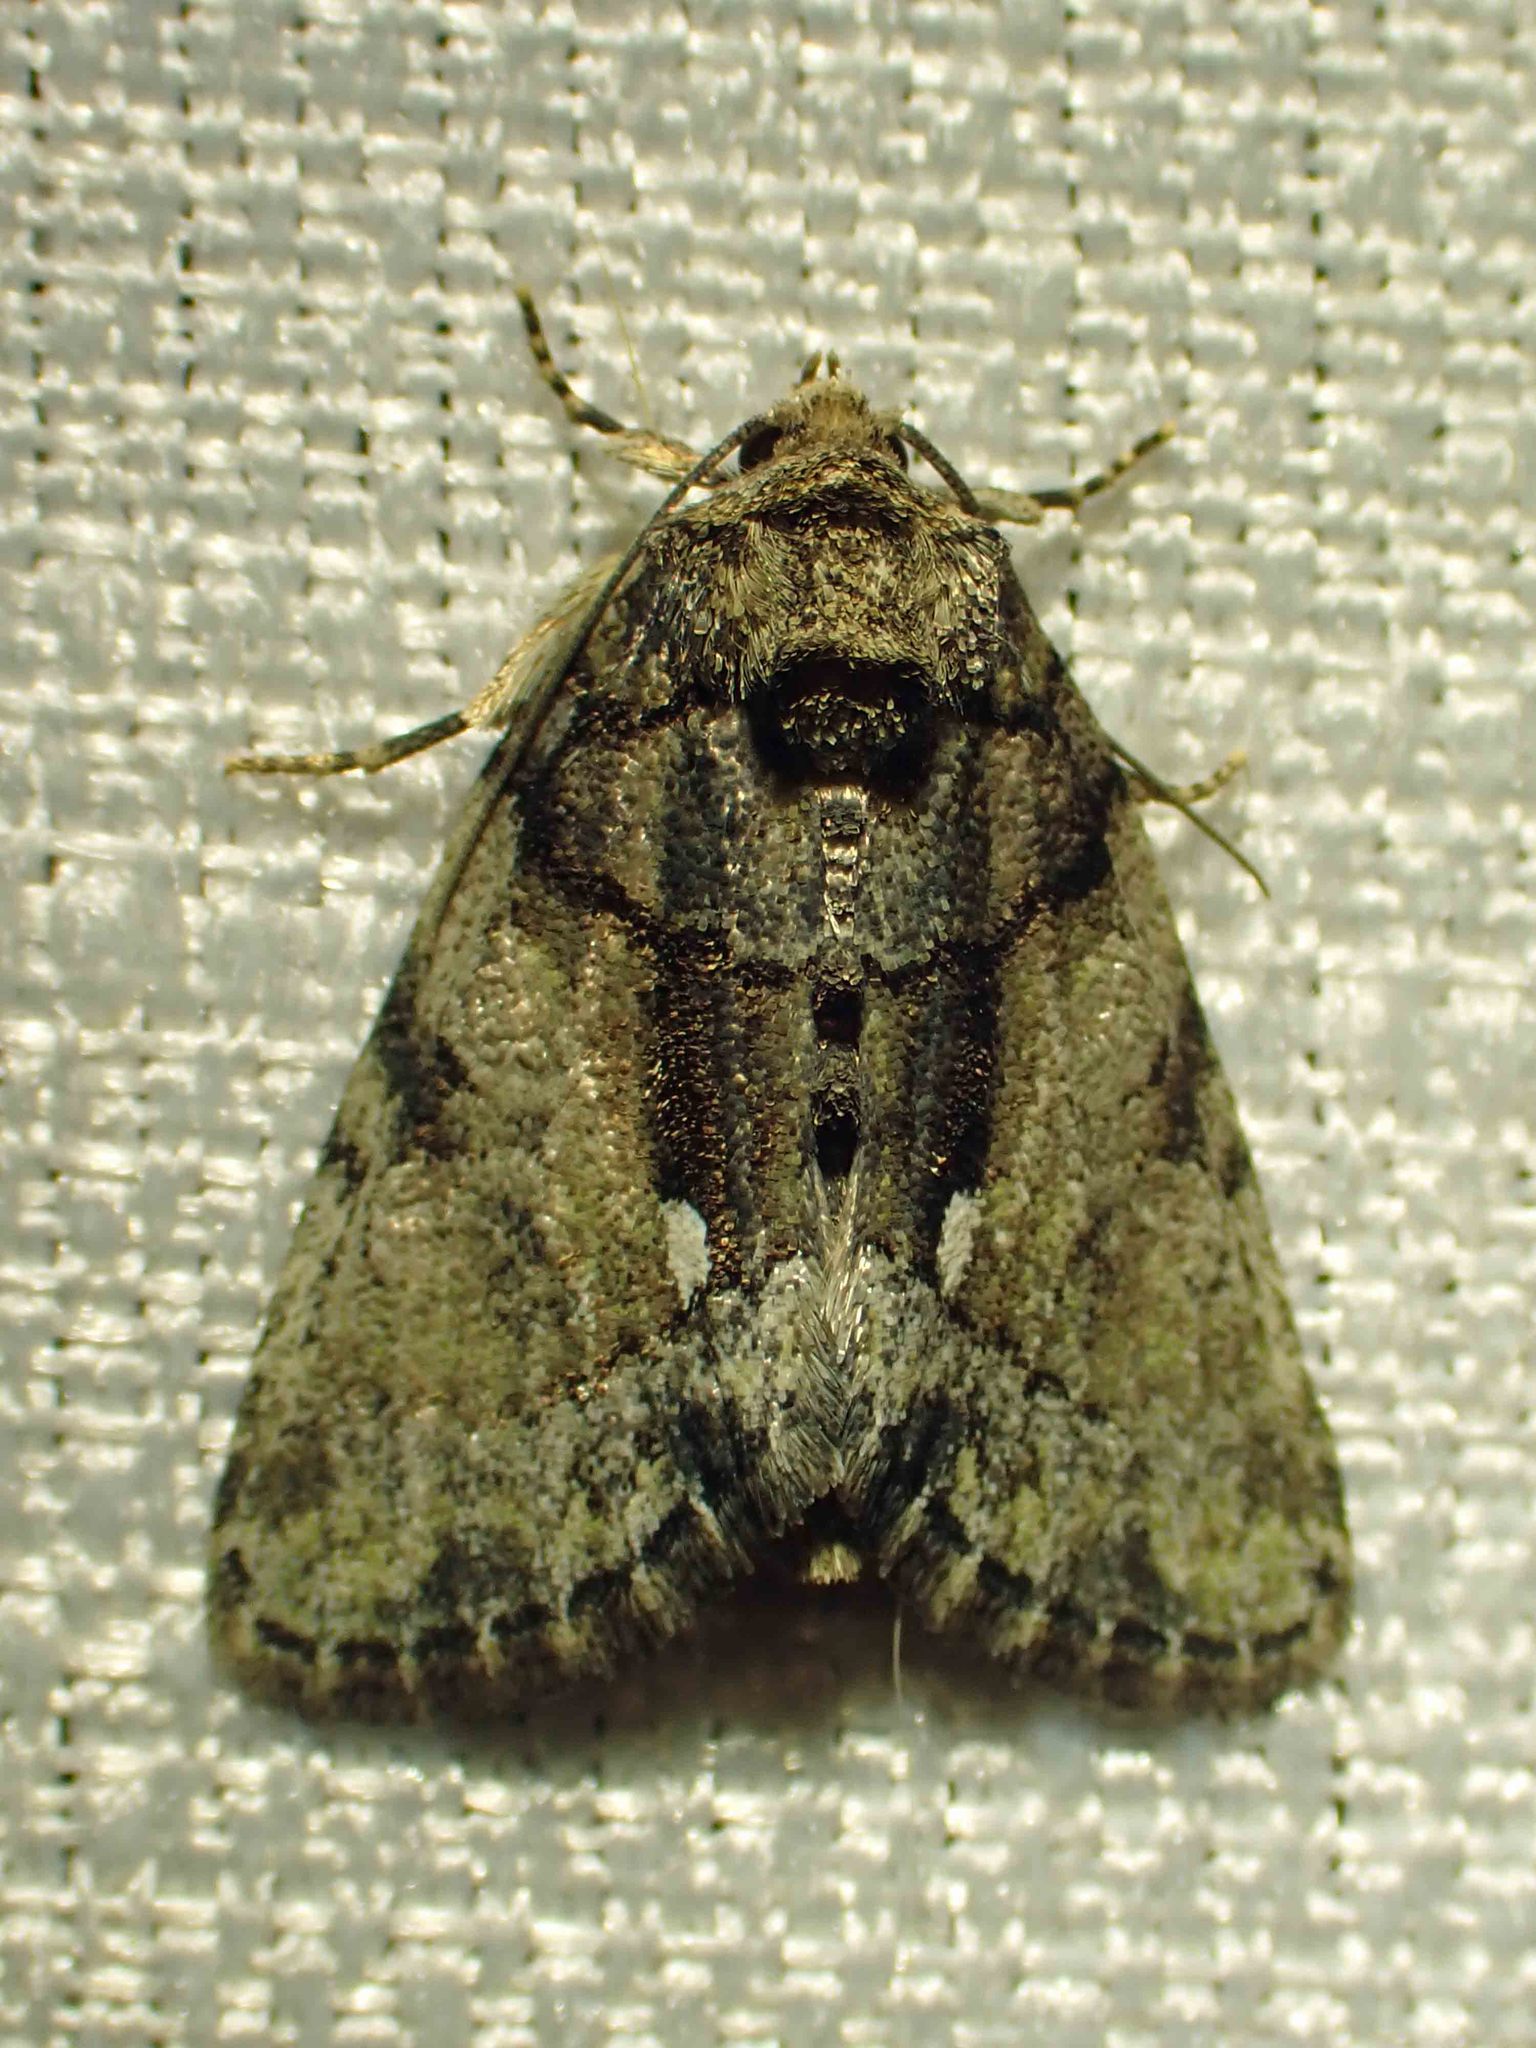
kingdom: Animalia
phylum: Arthropoda
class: Insecta
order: Lepidoptera
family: Noctuidae
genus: Chytonix
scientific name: Chytonix palliatricula
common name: Cloaked marvel
